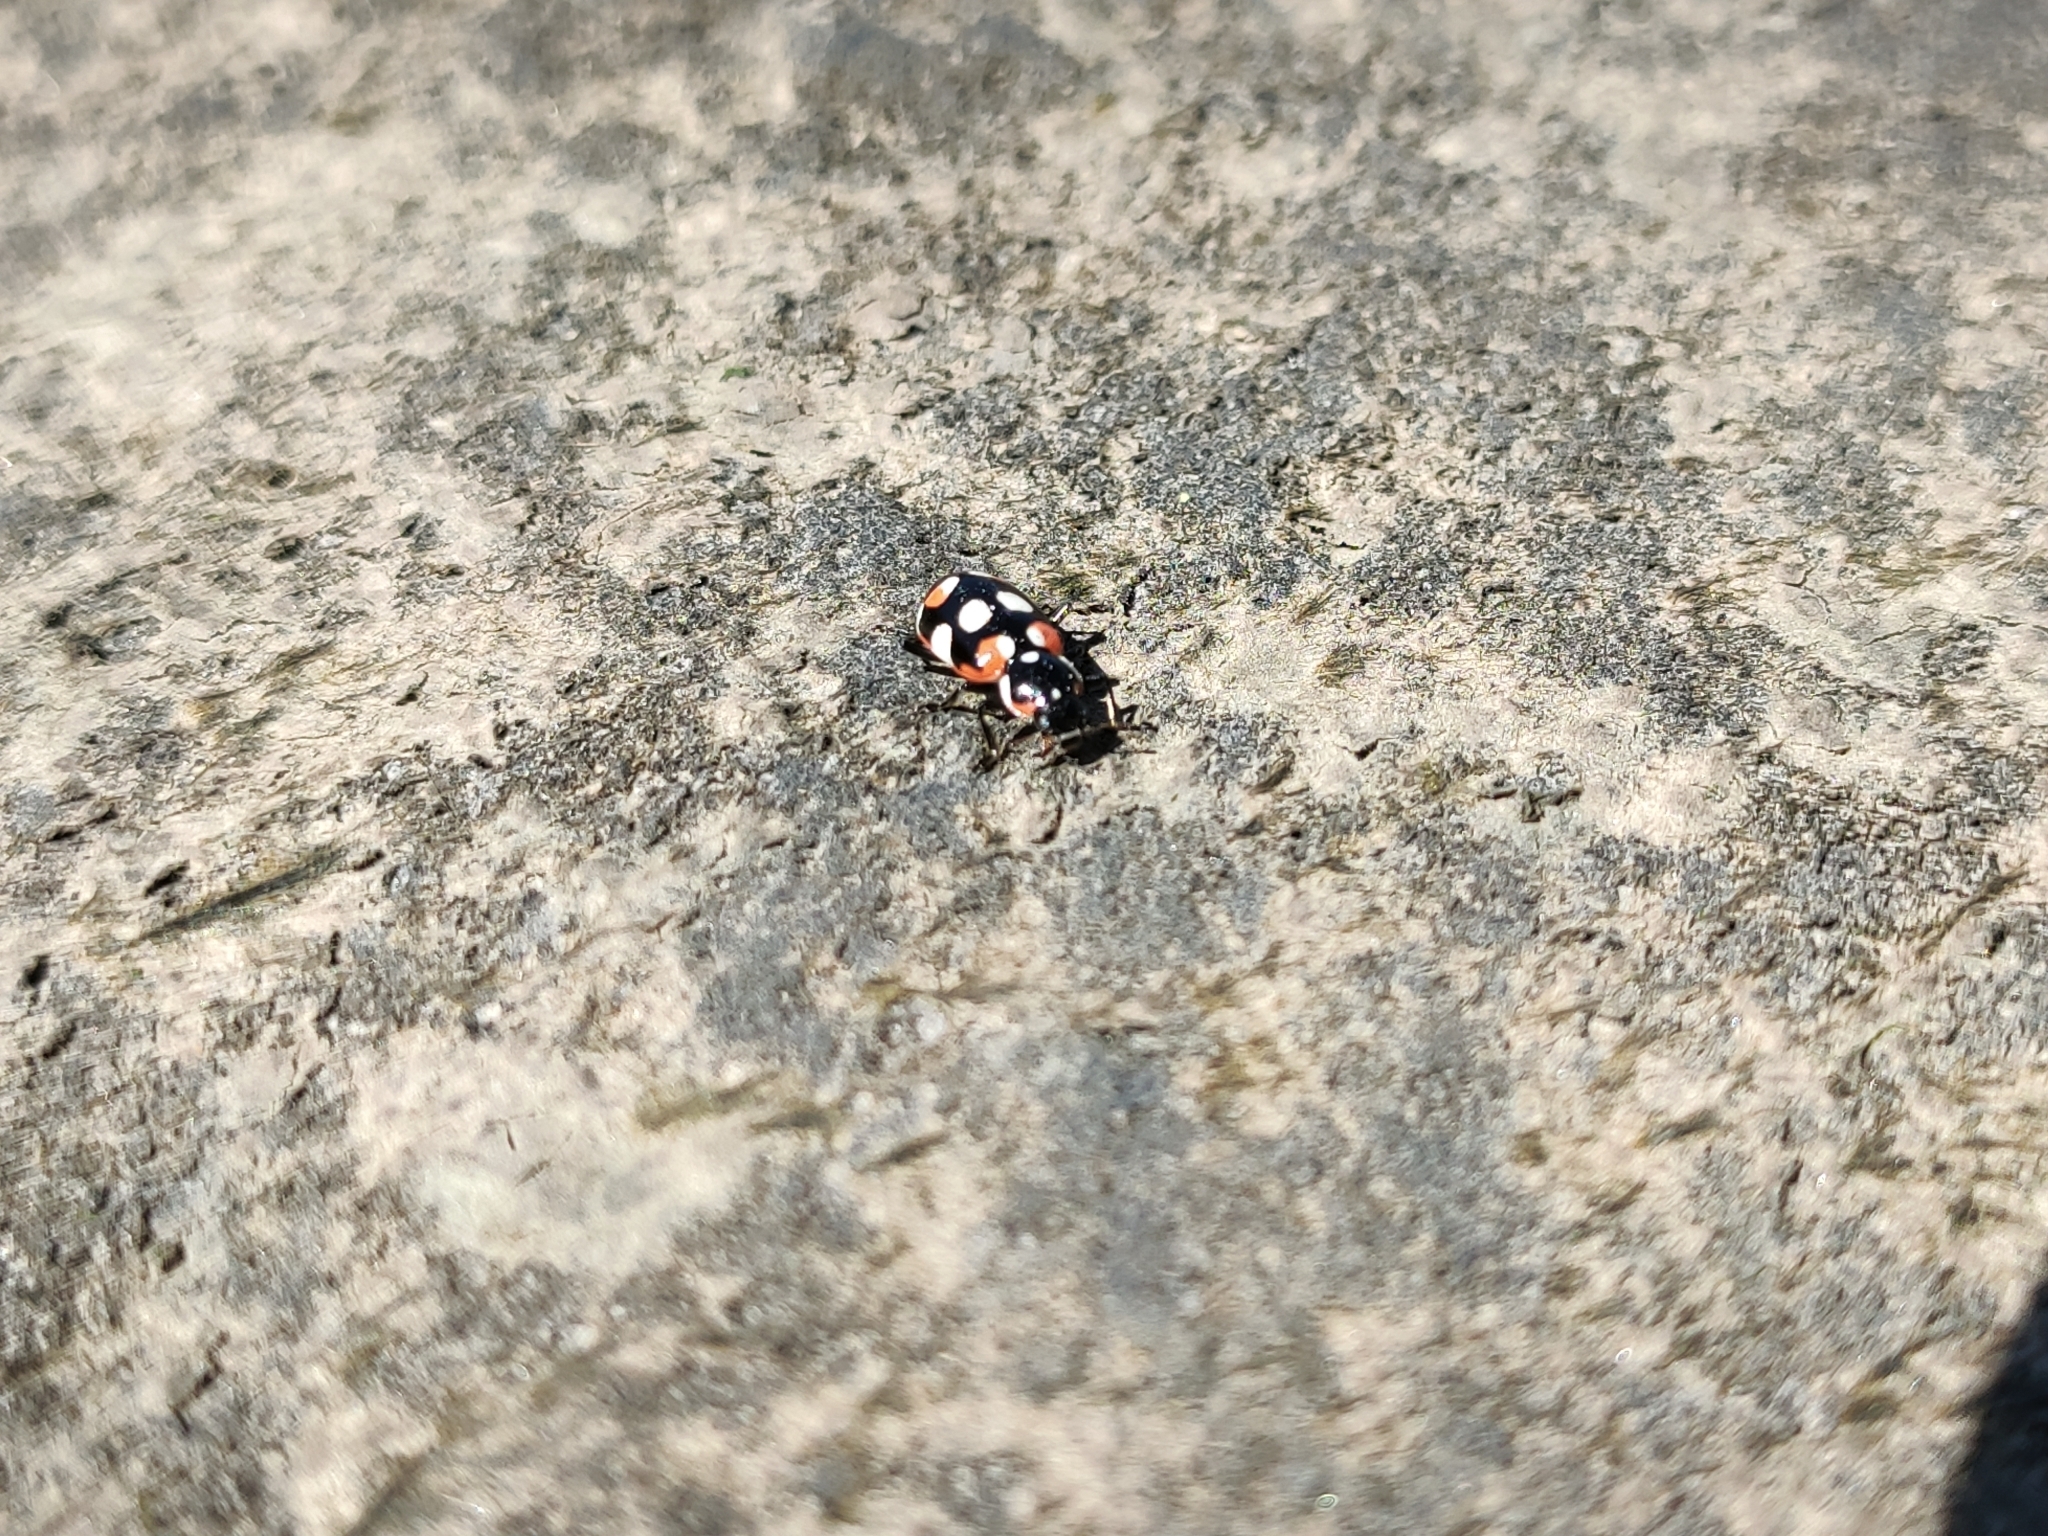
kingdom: Animalia
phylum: Arthropoda
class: Insecta
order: Coleoptera
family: Coccinellidae
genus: Eriopis
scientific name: Eriopis connexa
